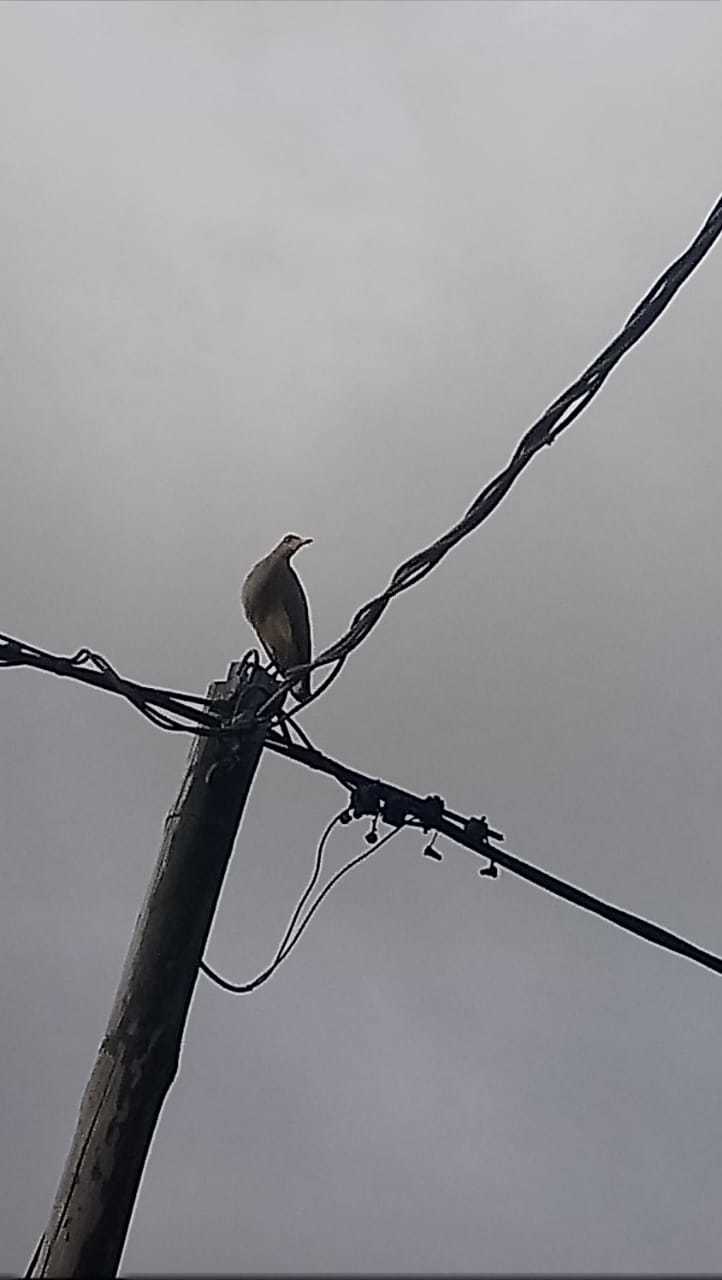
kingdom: Animalia
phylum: Chordata
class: Aves
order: Pelecaniformes
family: Ardeidae
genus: Syrigma
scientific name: Syrigma sibilatrix
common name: Whistling heron
